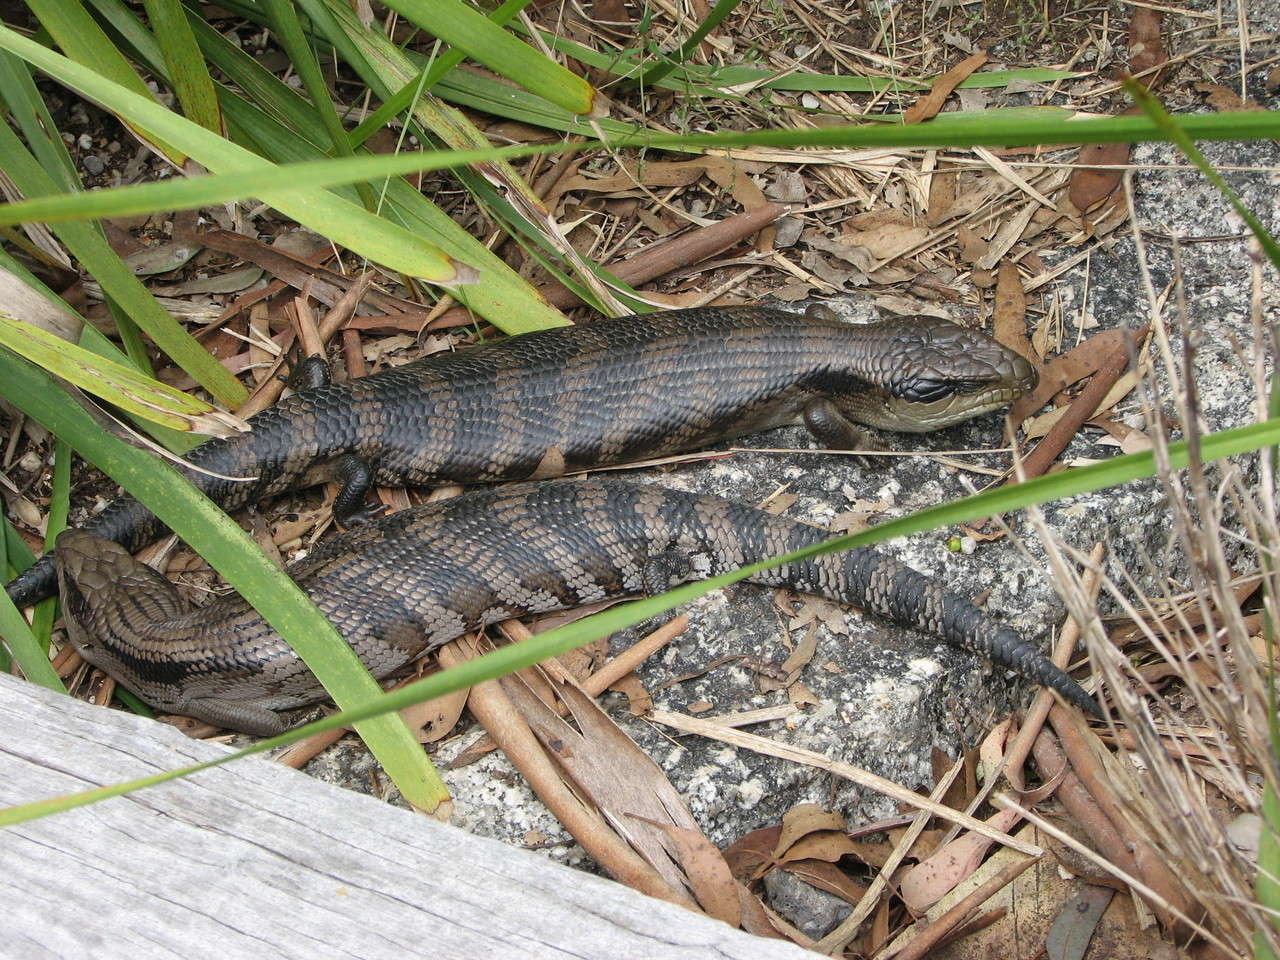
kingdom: Animalia
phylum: Chordata
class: Squamata
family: Scincidae
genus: Tiliqua
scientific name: Tiliqua scincoides
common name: Common bluetongue
